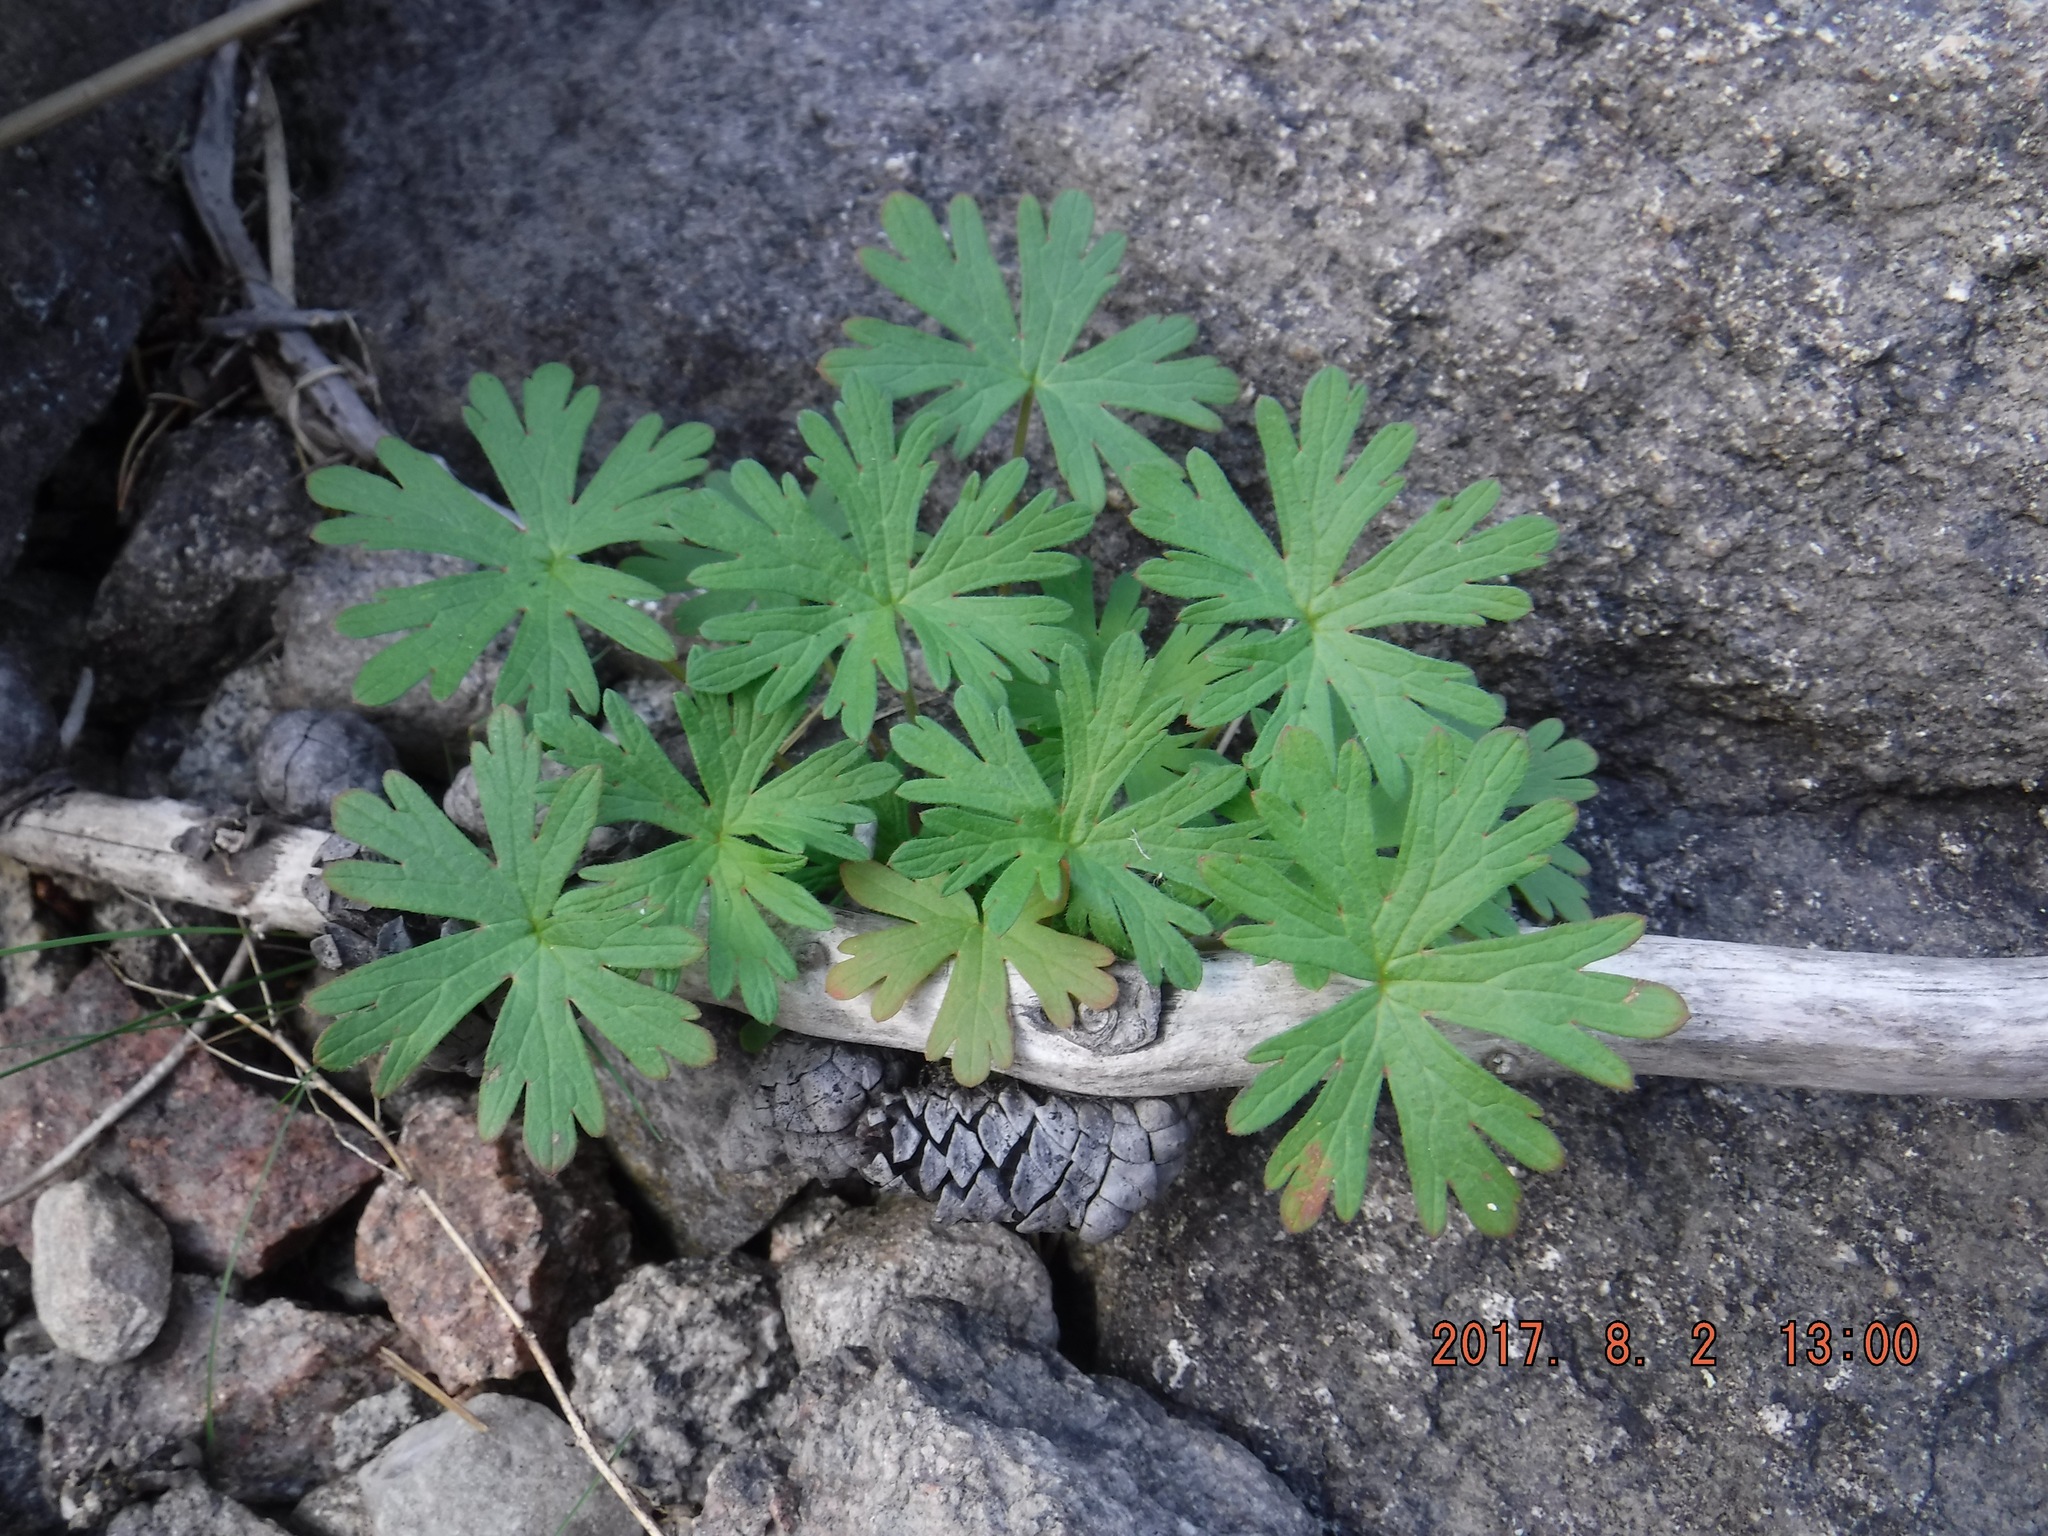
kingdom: Plantae
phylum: Tracheophyta
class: Magnoliopsida
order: Geraniales
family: Geraniaceae
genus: Geranium
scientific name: Geranium bicknellii
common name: Bicknell's cranesbill
